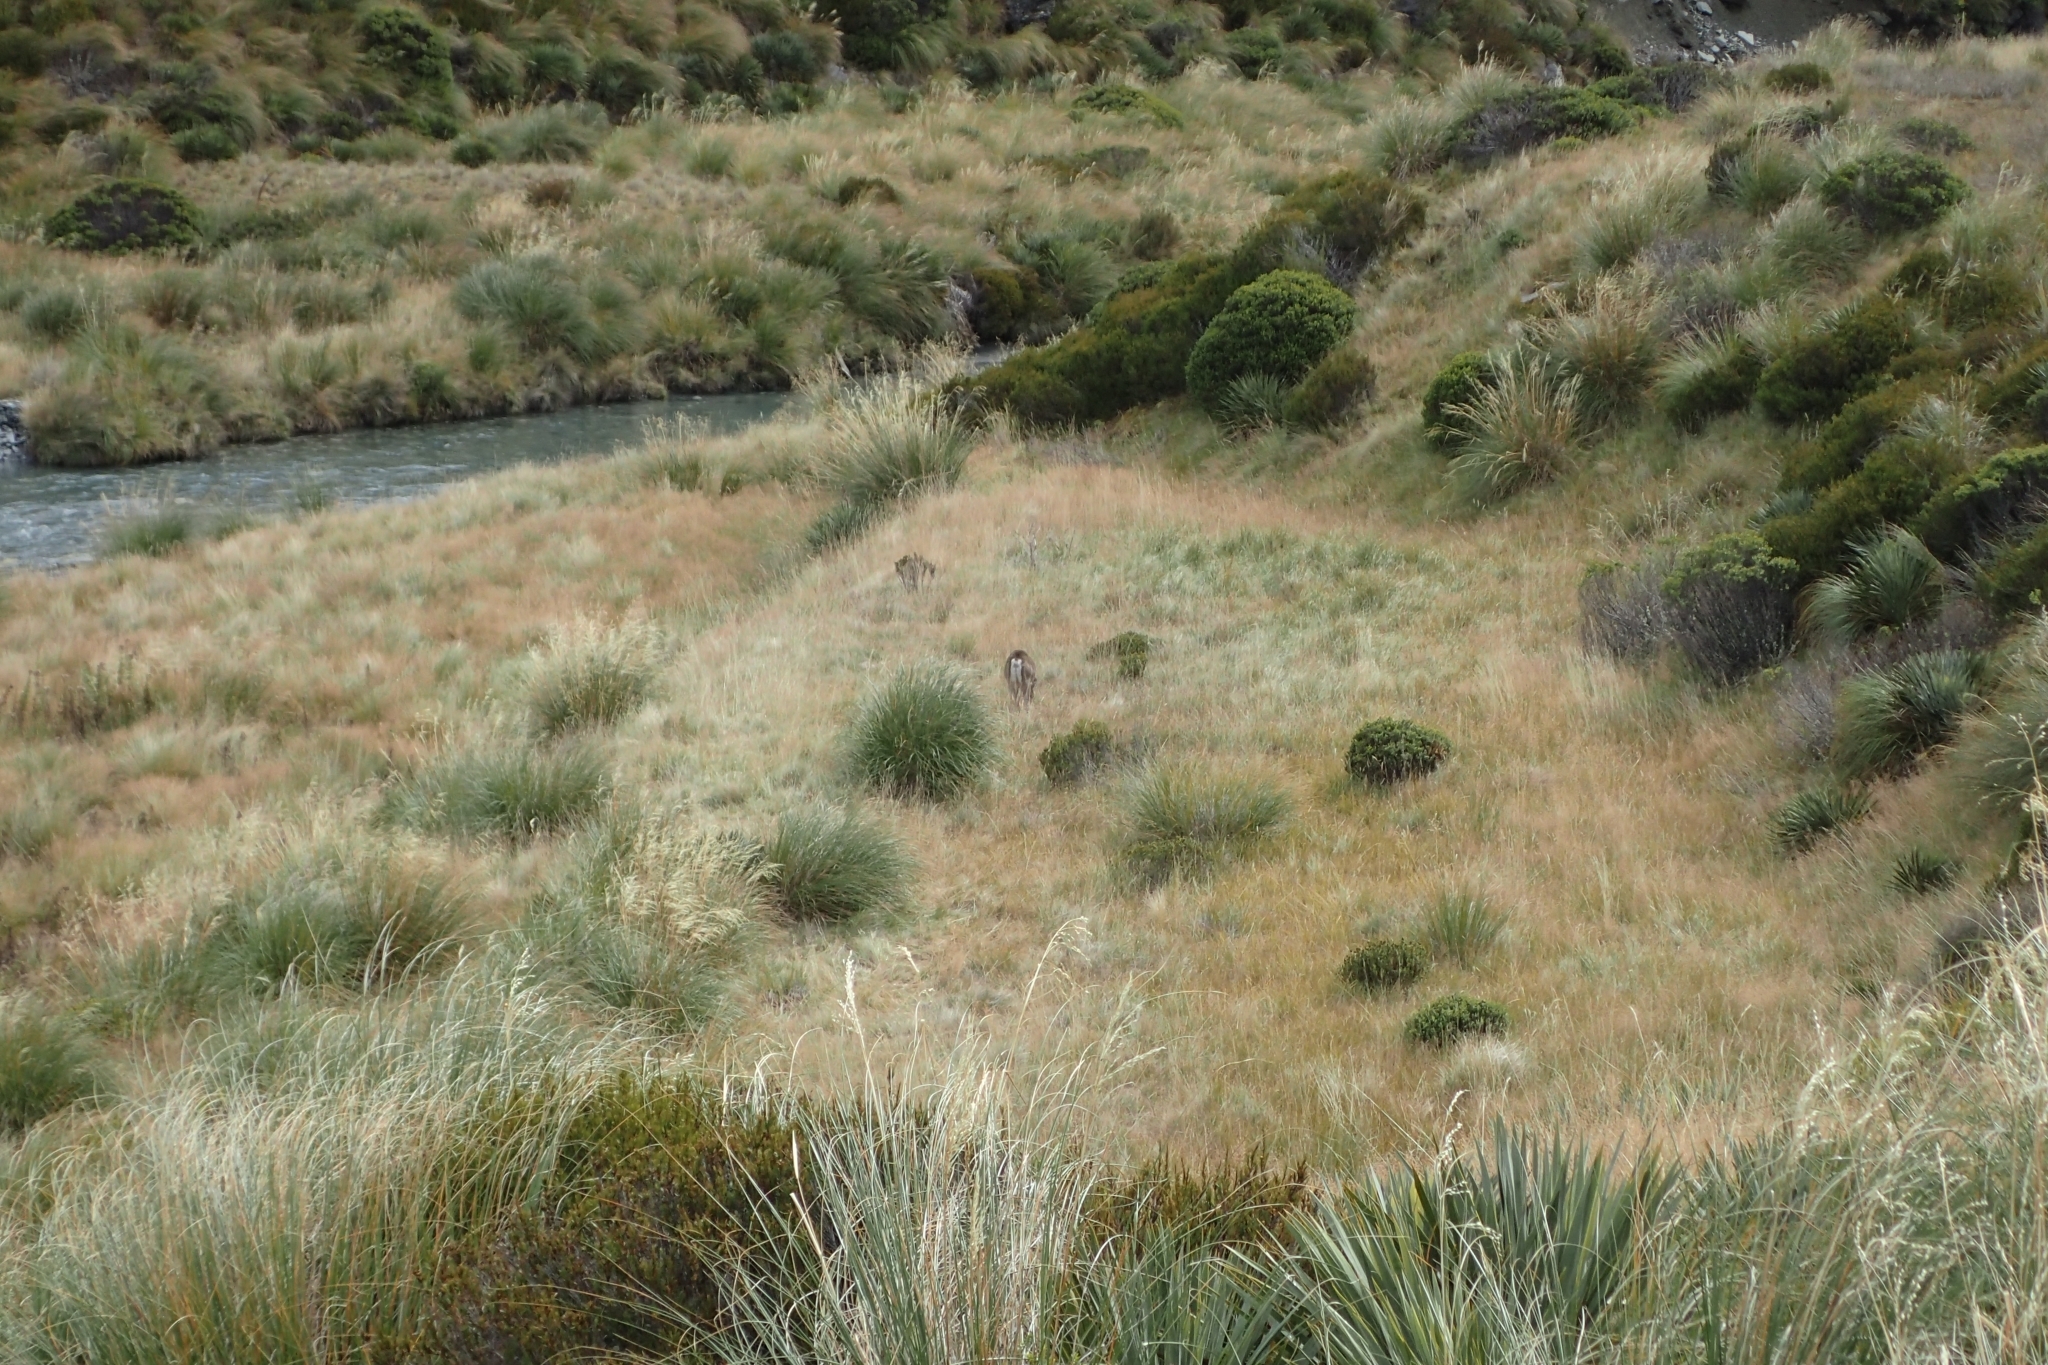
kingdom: Animalia
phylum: Chordata
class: Mammalia
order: Artiodactyla
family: Cervidae
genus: Dama
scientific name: Dama dama
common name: Fallow deer
